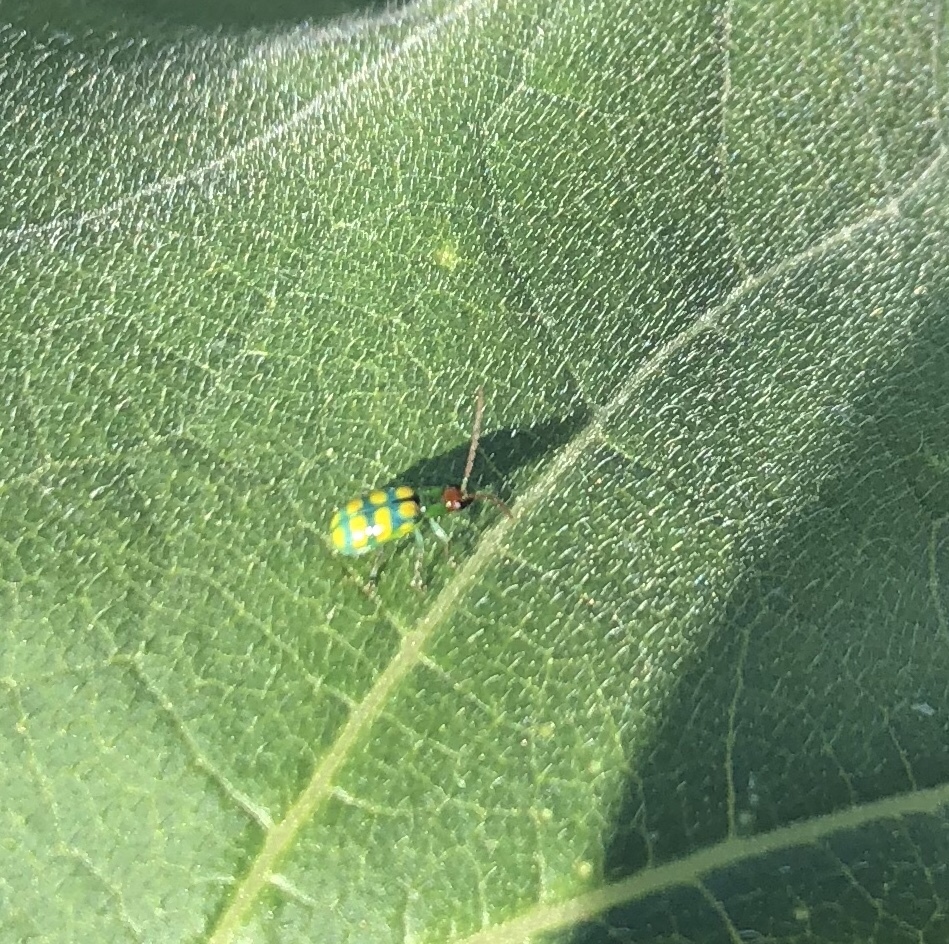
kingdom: Animalia
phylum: Arthropoda
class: Insecta
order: Coleoptera
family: Chrysomelidae
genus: Diabrotica
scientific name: Diabrotica balteata
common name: Leaf beetle
